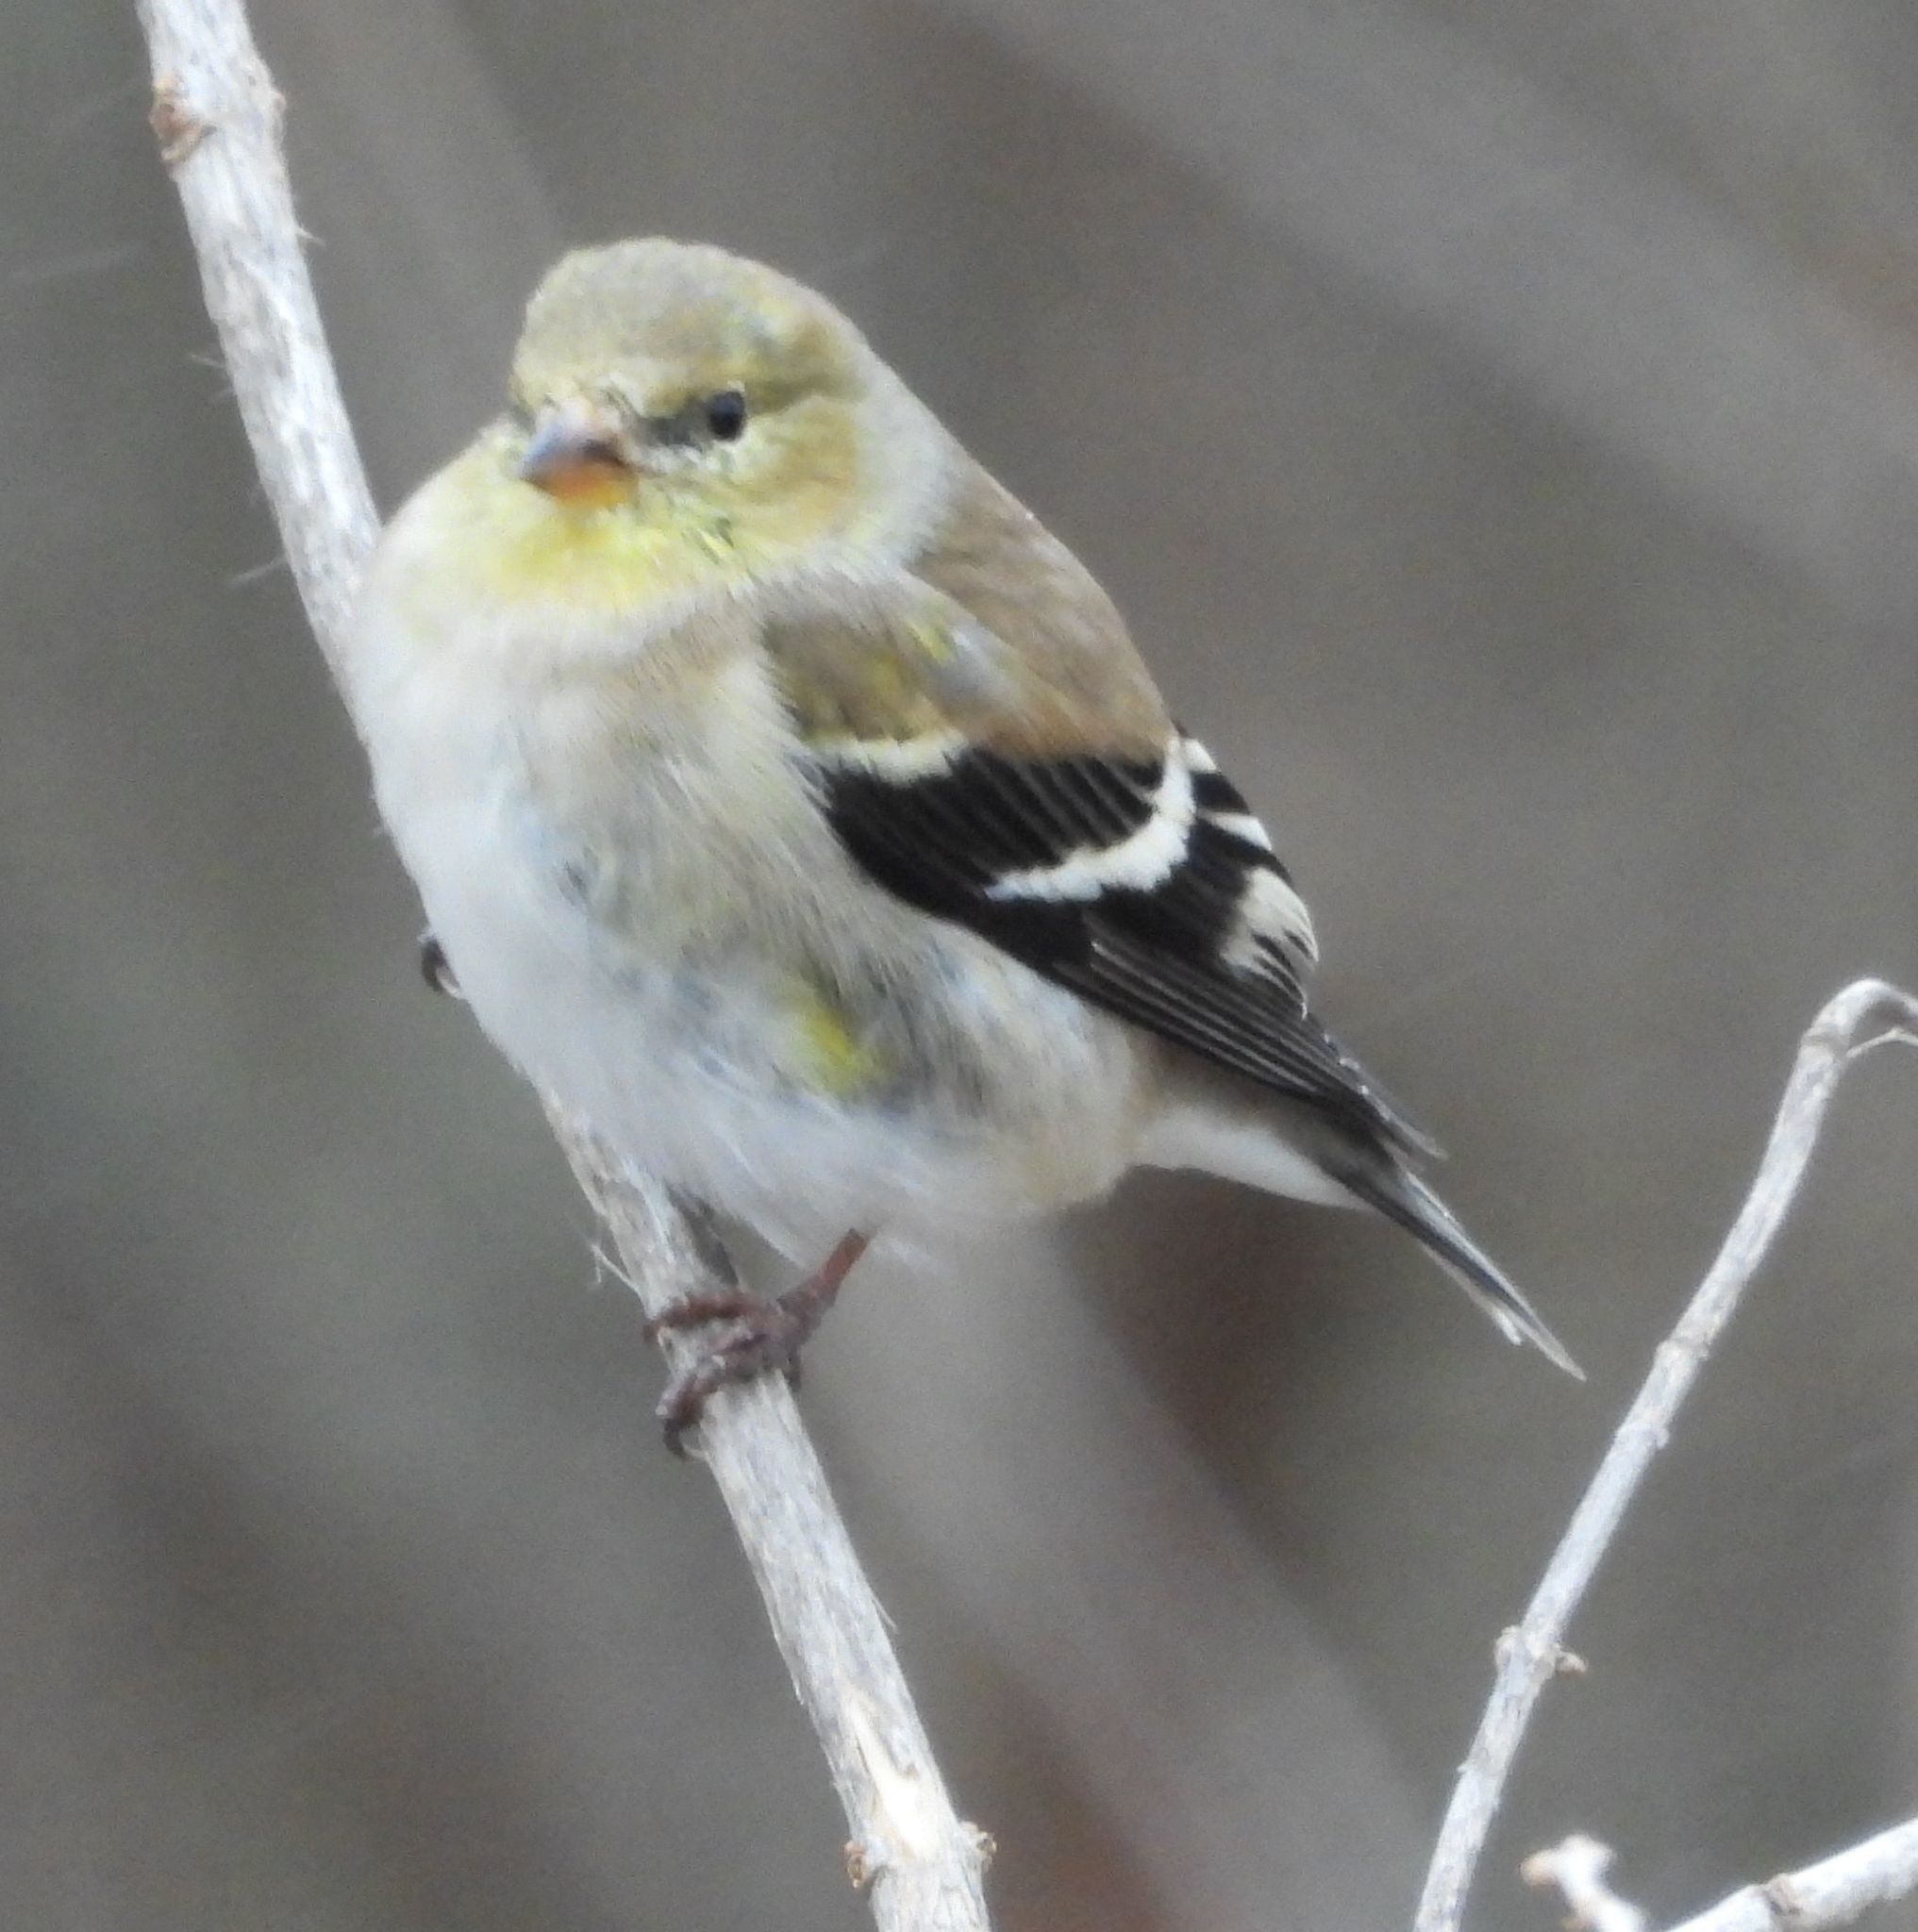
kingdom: Animalia
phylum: Chordata
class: Aves
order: Passeriformes
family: Fringillidae
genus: Spinus
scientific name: Spinus tristis
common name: American goldfinch
